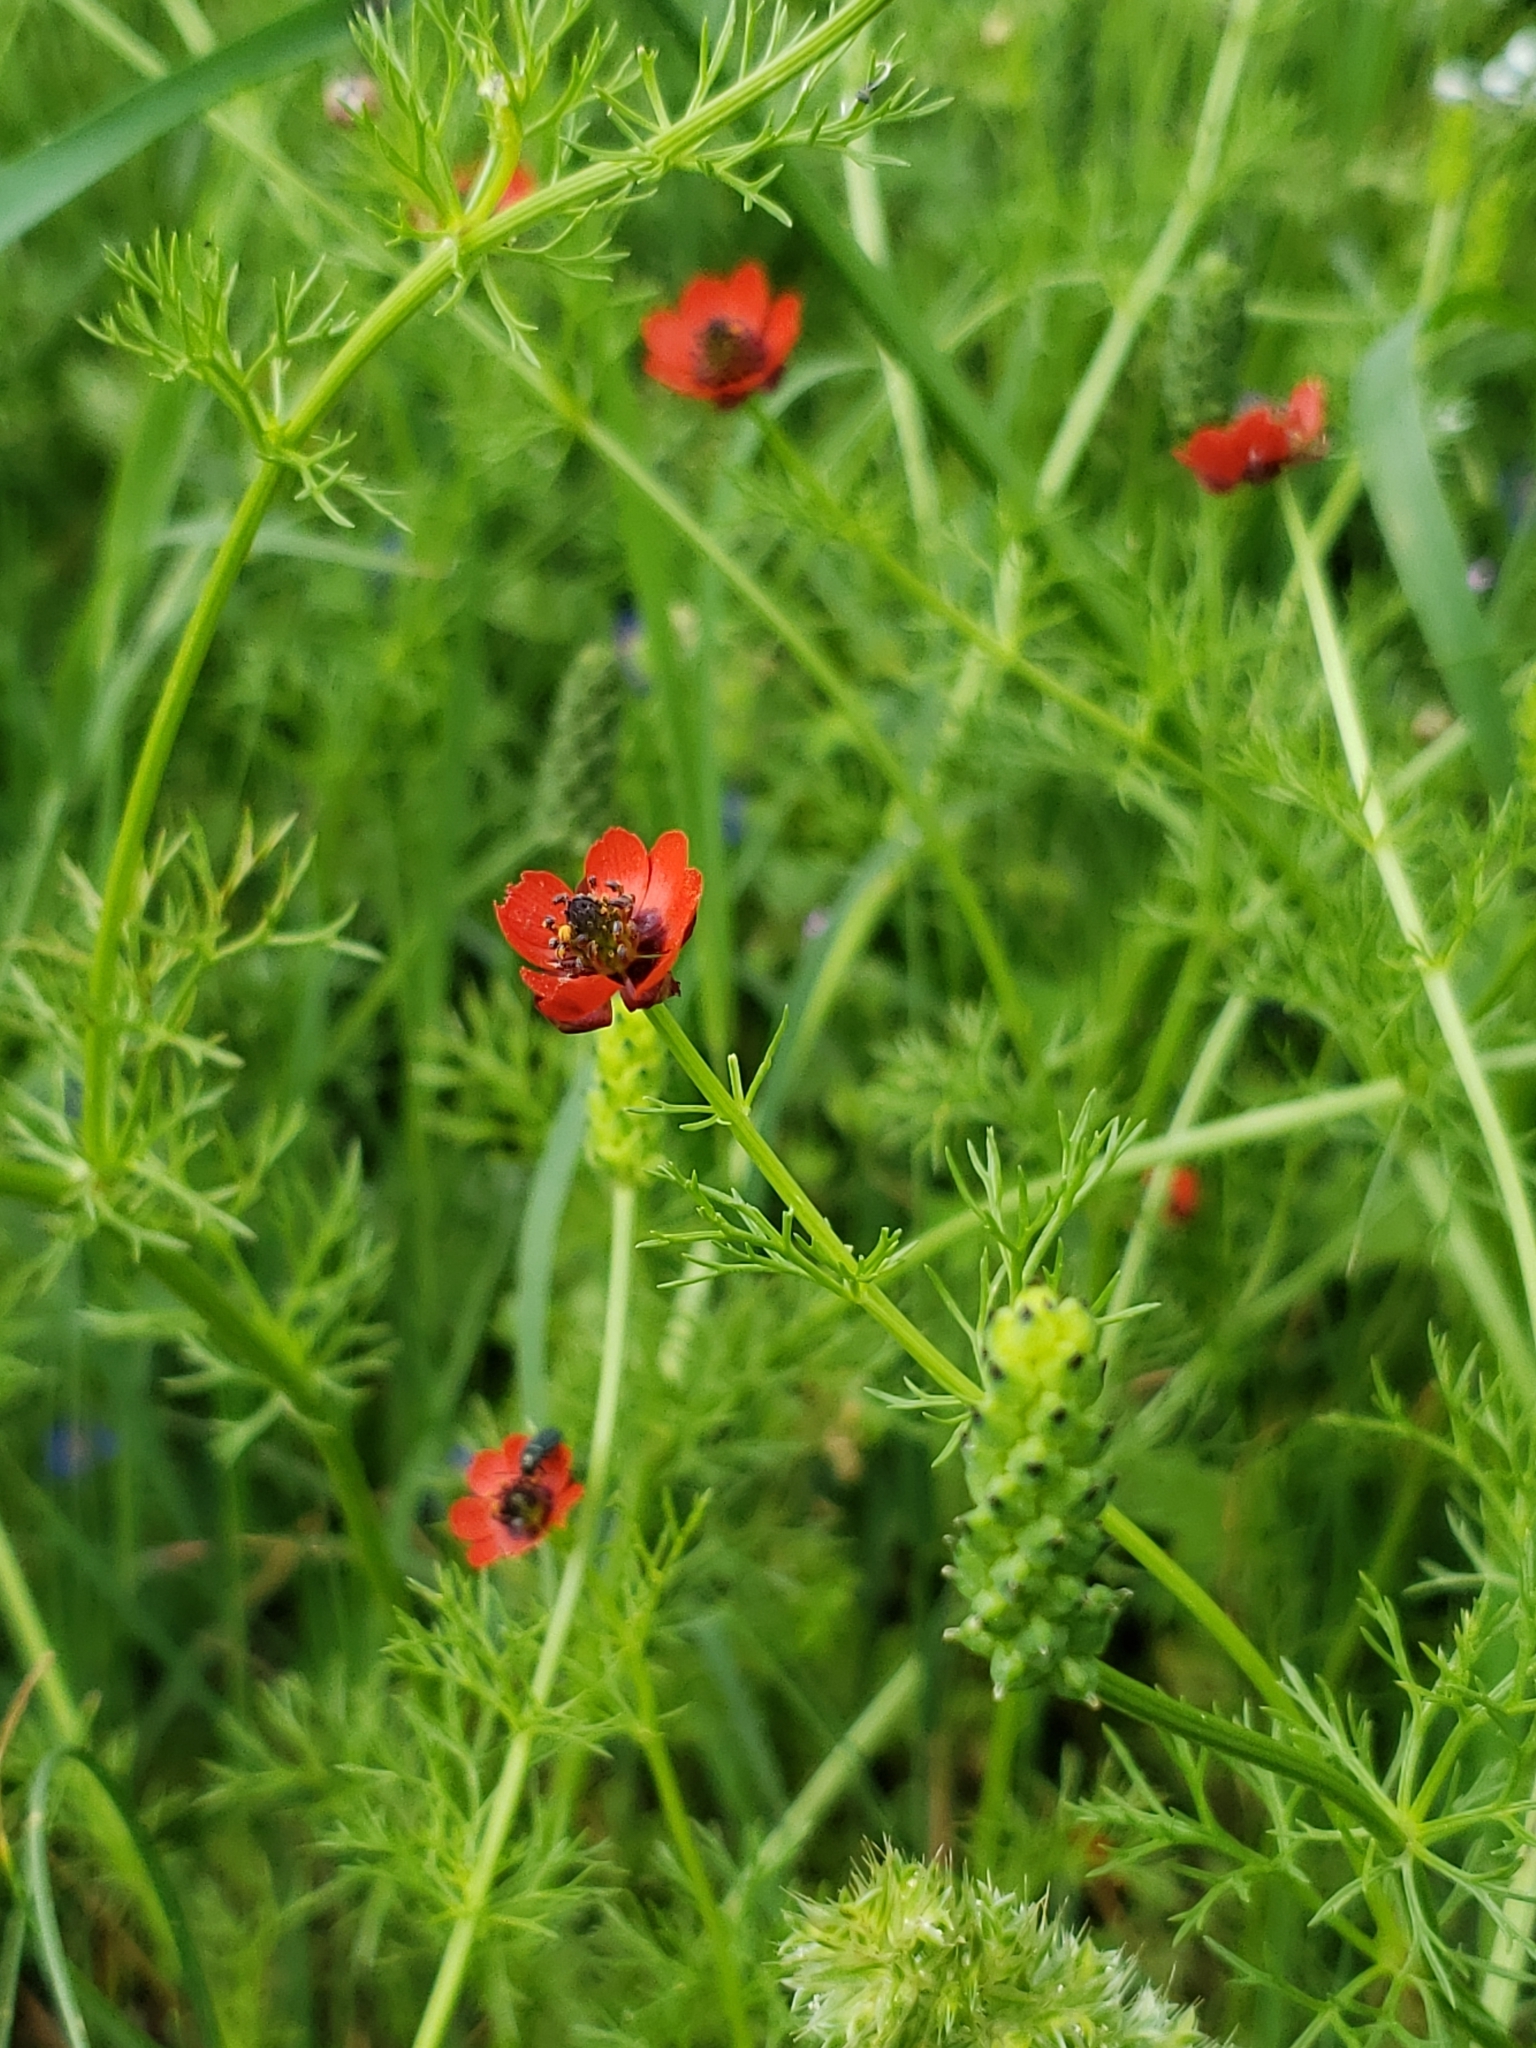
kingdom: Plantae
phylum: Tracheophyta
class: Magnoliopsida
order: Ranunculales
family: Ranunculaceae
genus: Adonis
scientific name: Adonis microcarpa
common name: Pheasant's-eye
